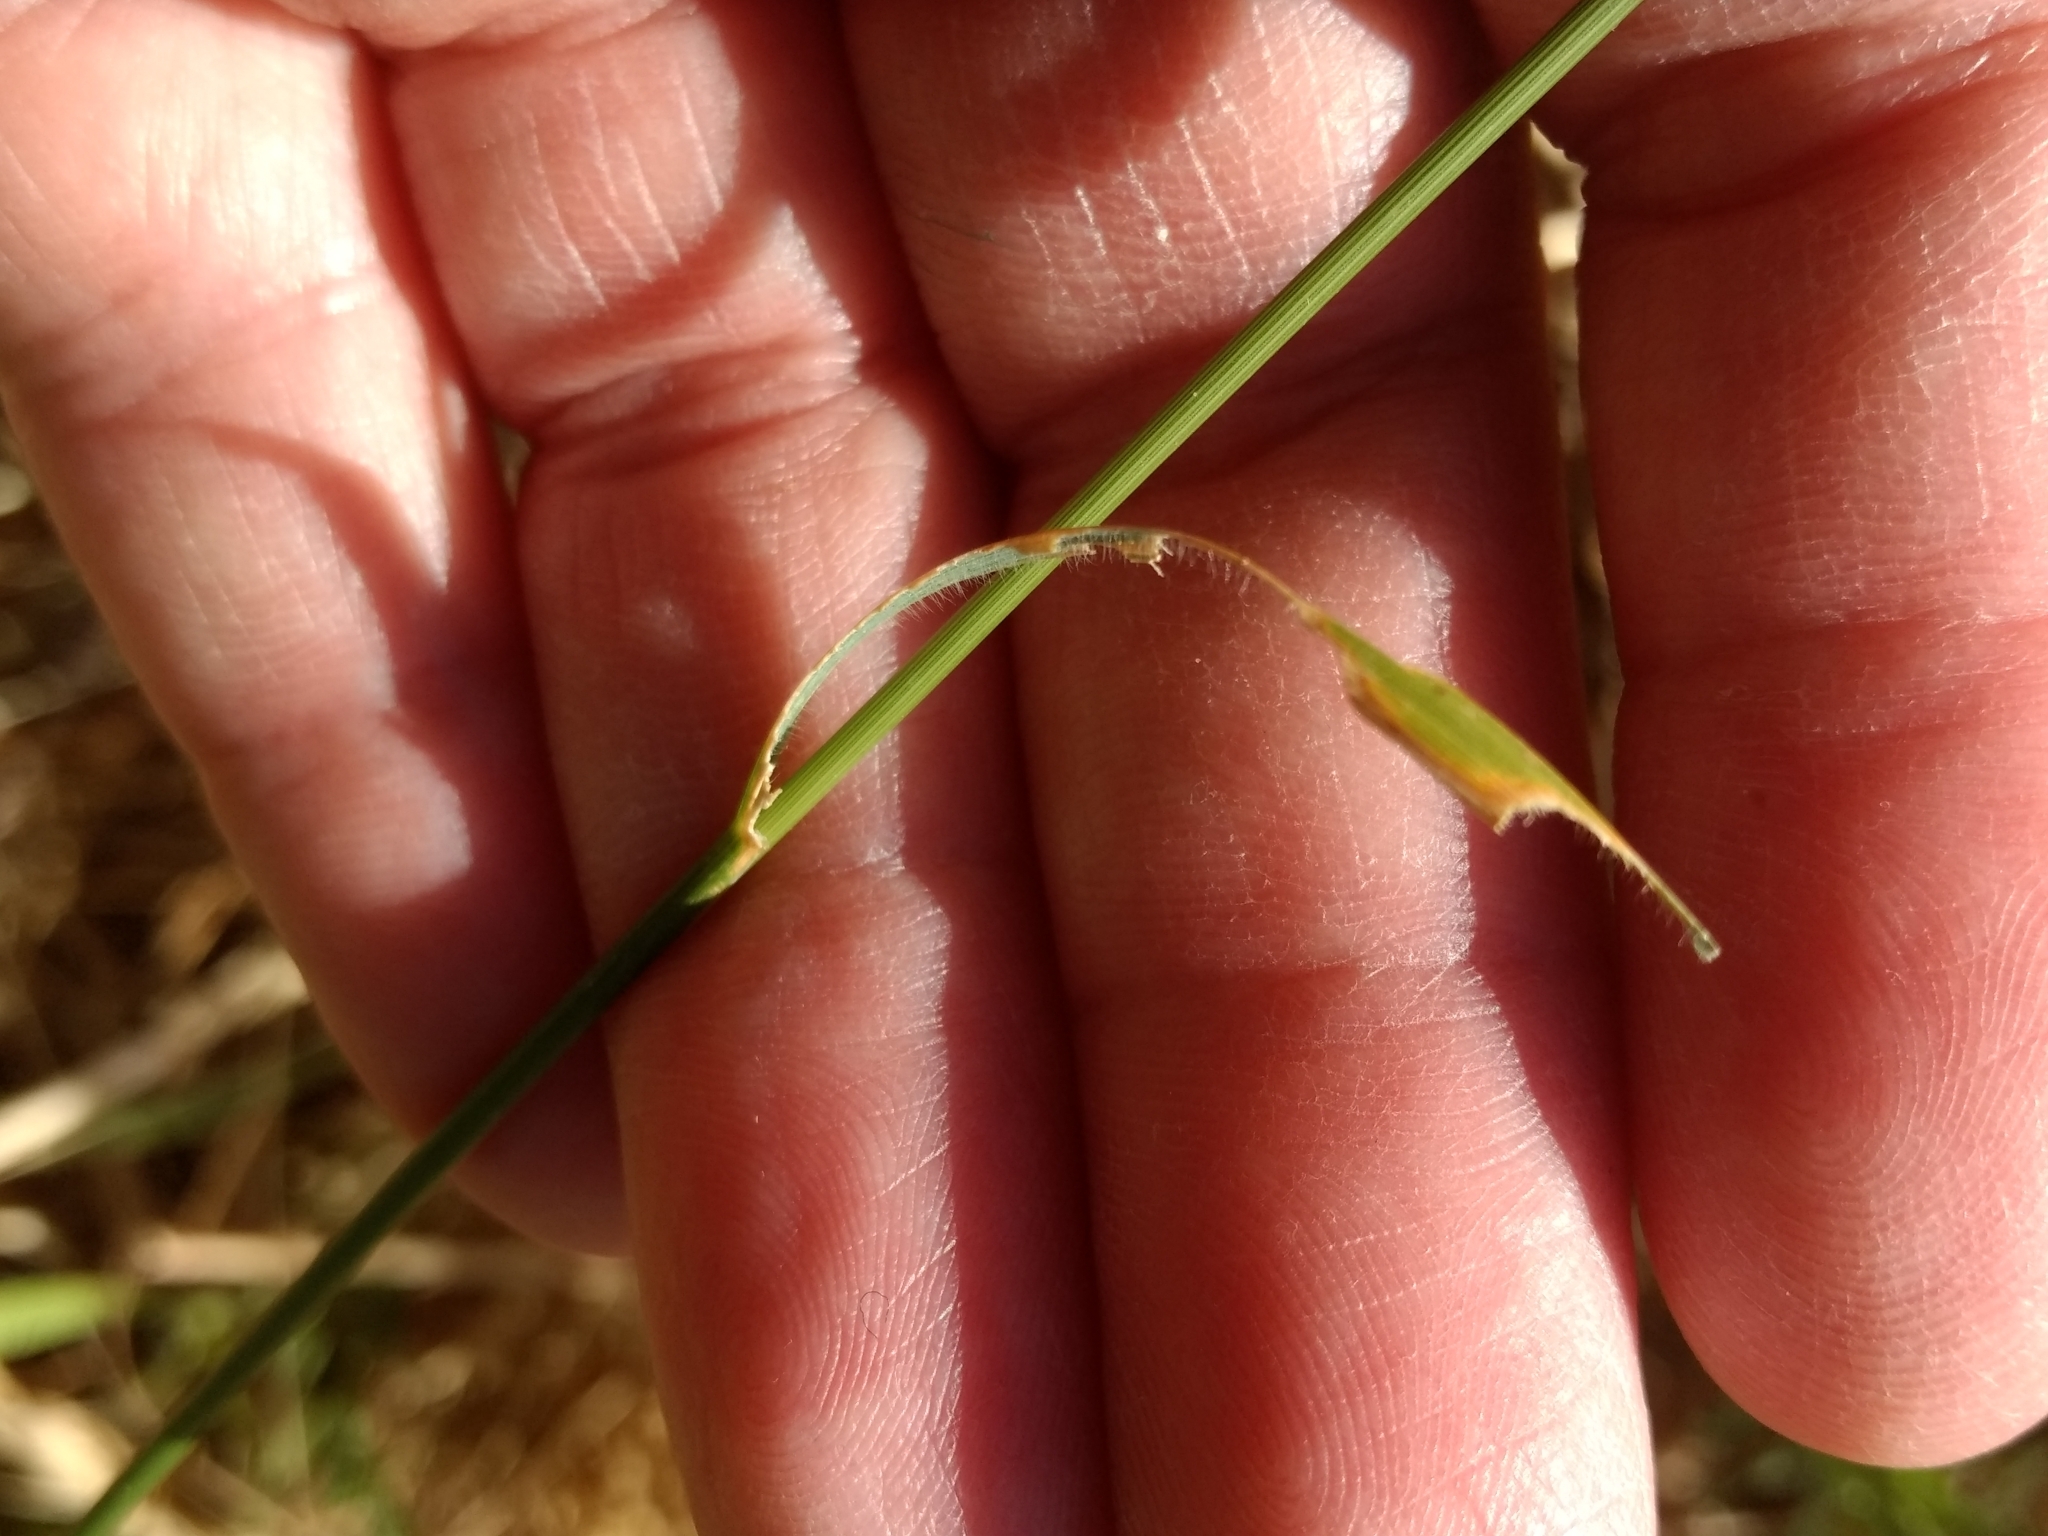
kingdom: Plantae
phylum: Tracheophyta
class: Liliopsida
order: Poales
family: Poaceae
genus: Agropyron
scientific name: Agropyron cristatum
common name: Crested wheatgrass
